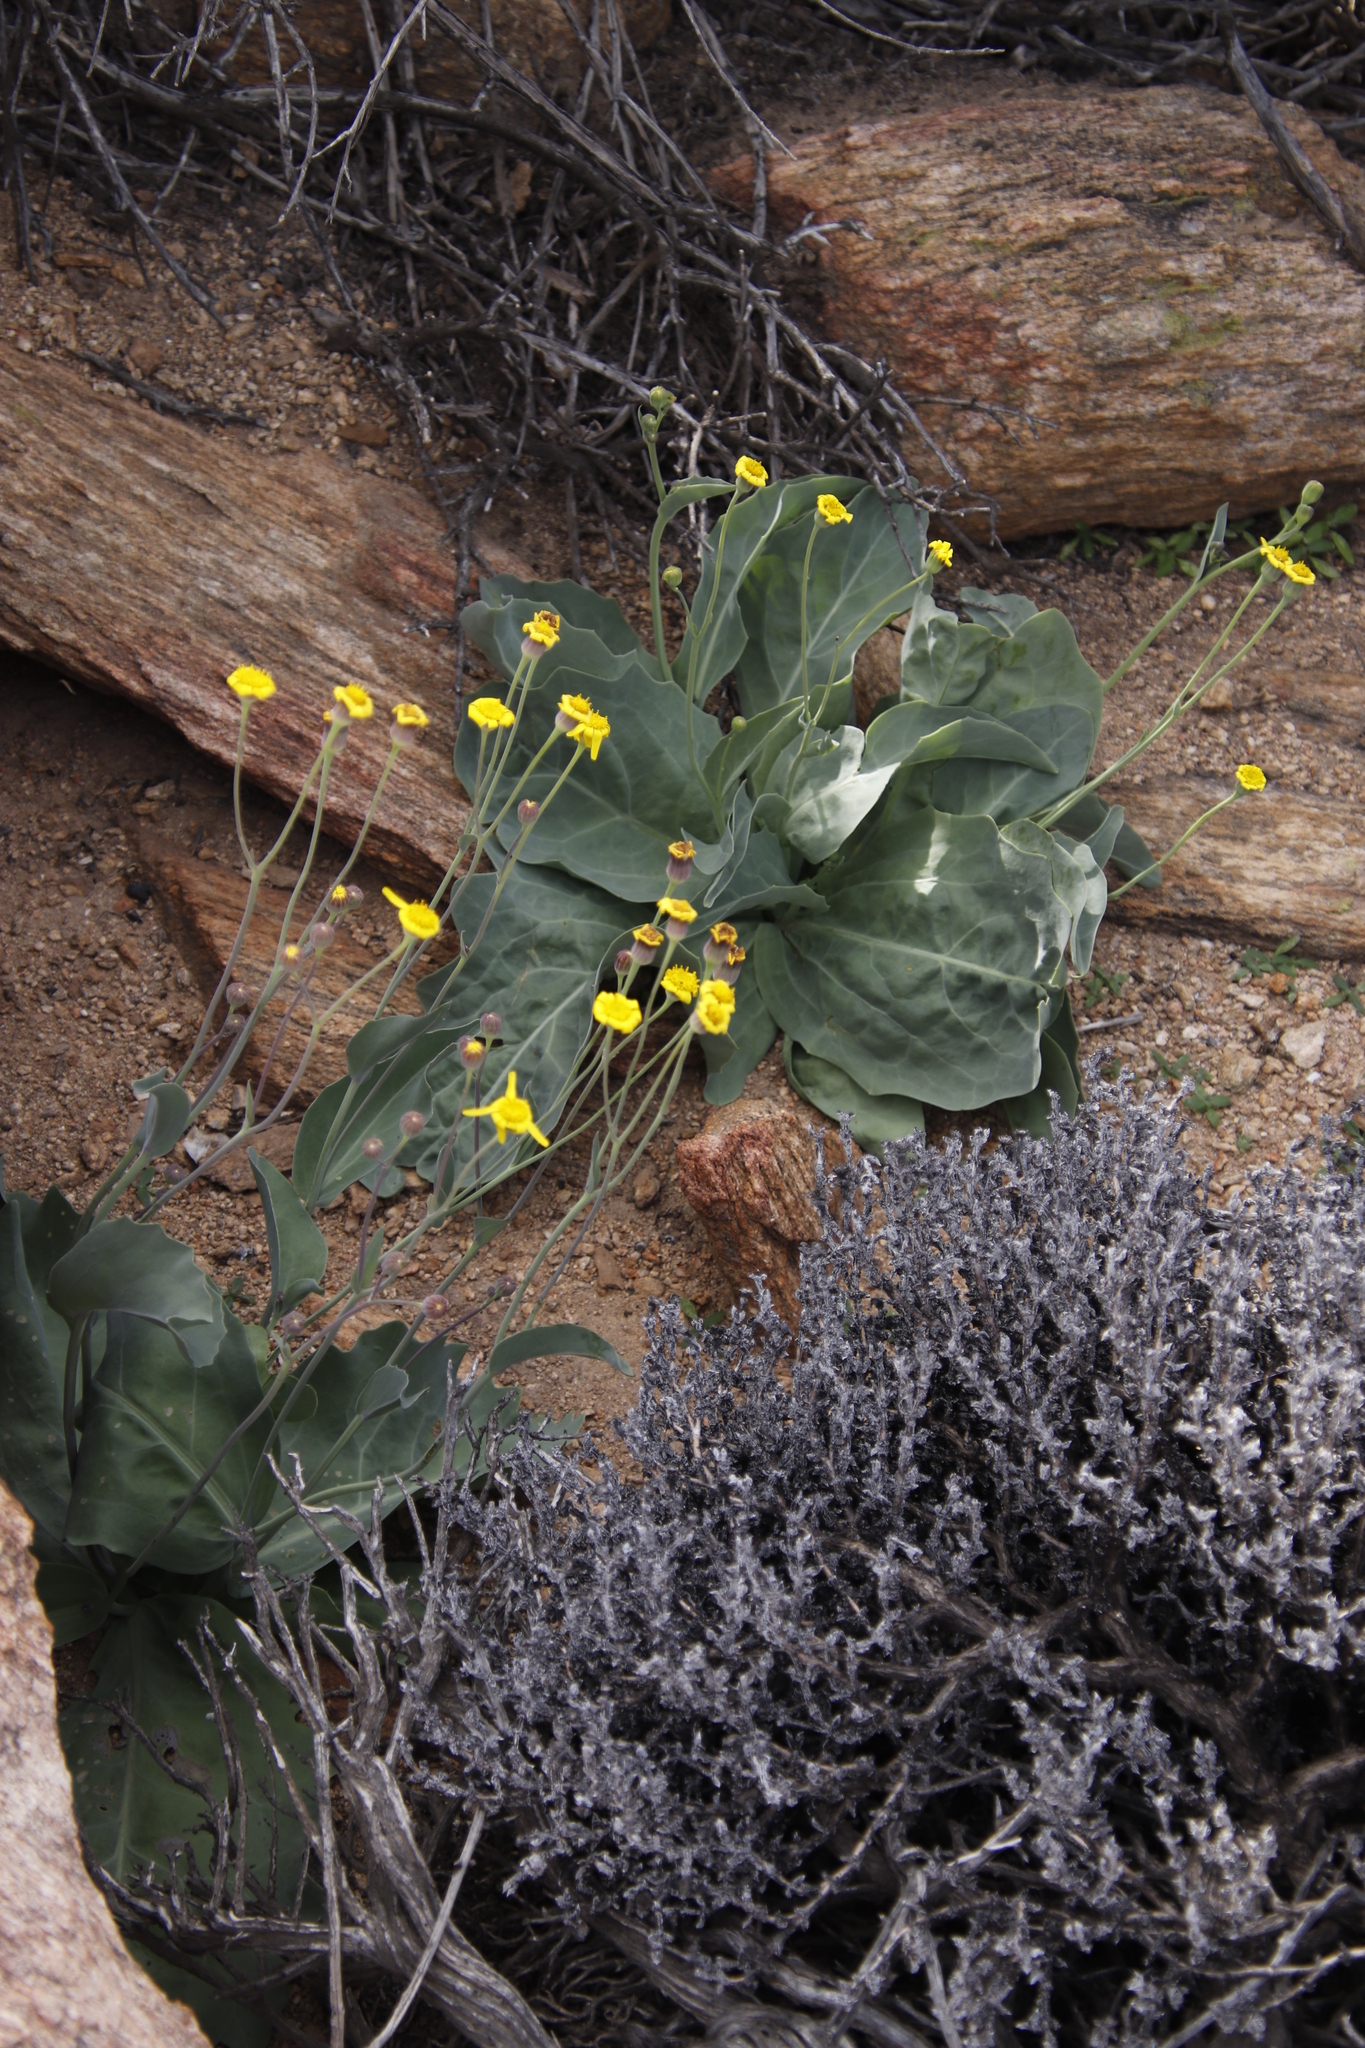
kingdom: Plantae
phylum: Tracheophyta
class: Magnoliopsida
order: Asterales
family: Asteraceae
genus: Othonna
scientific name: Othonna macrophylla
